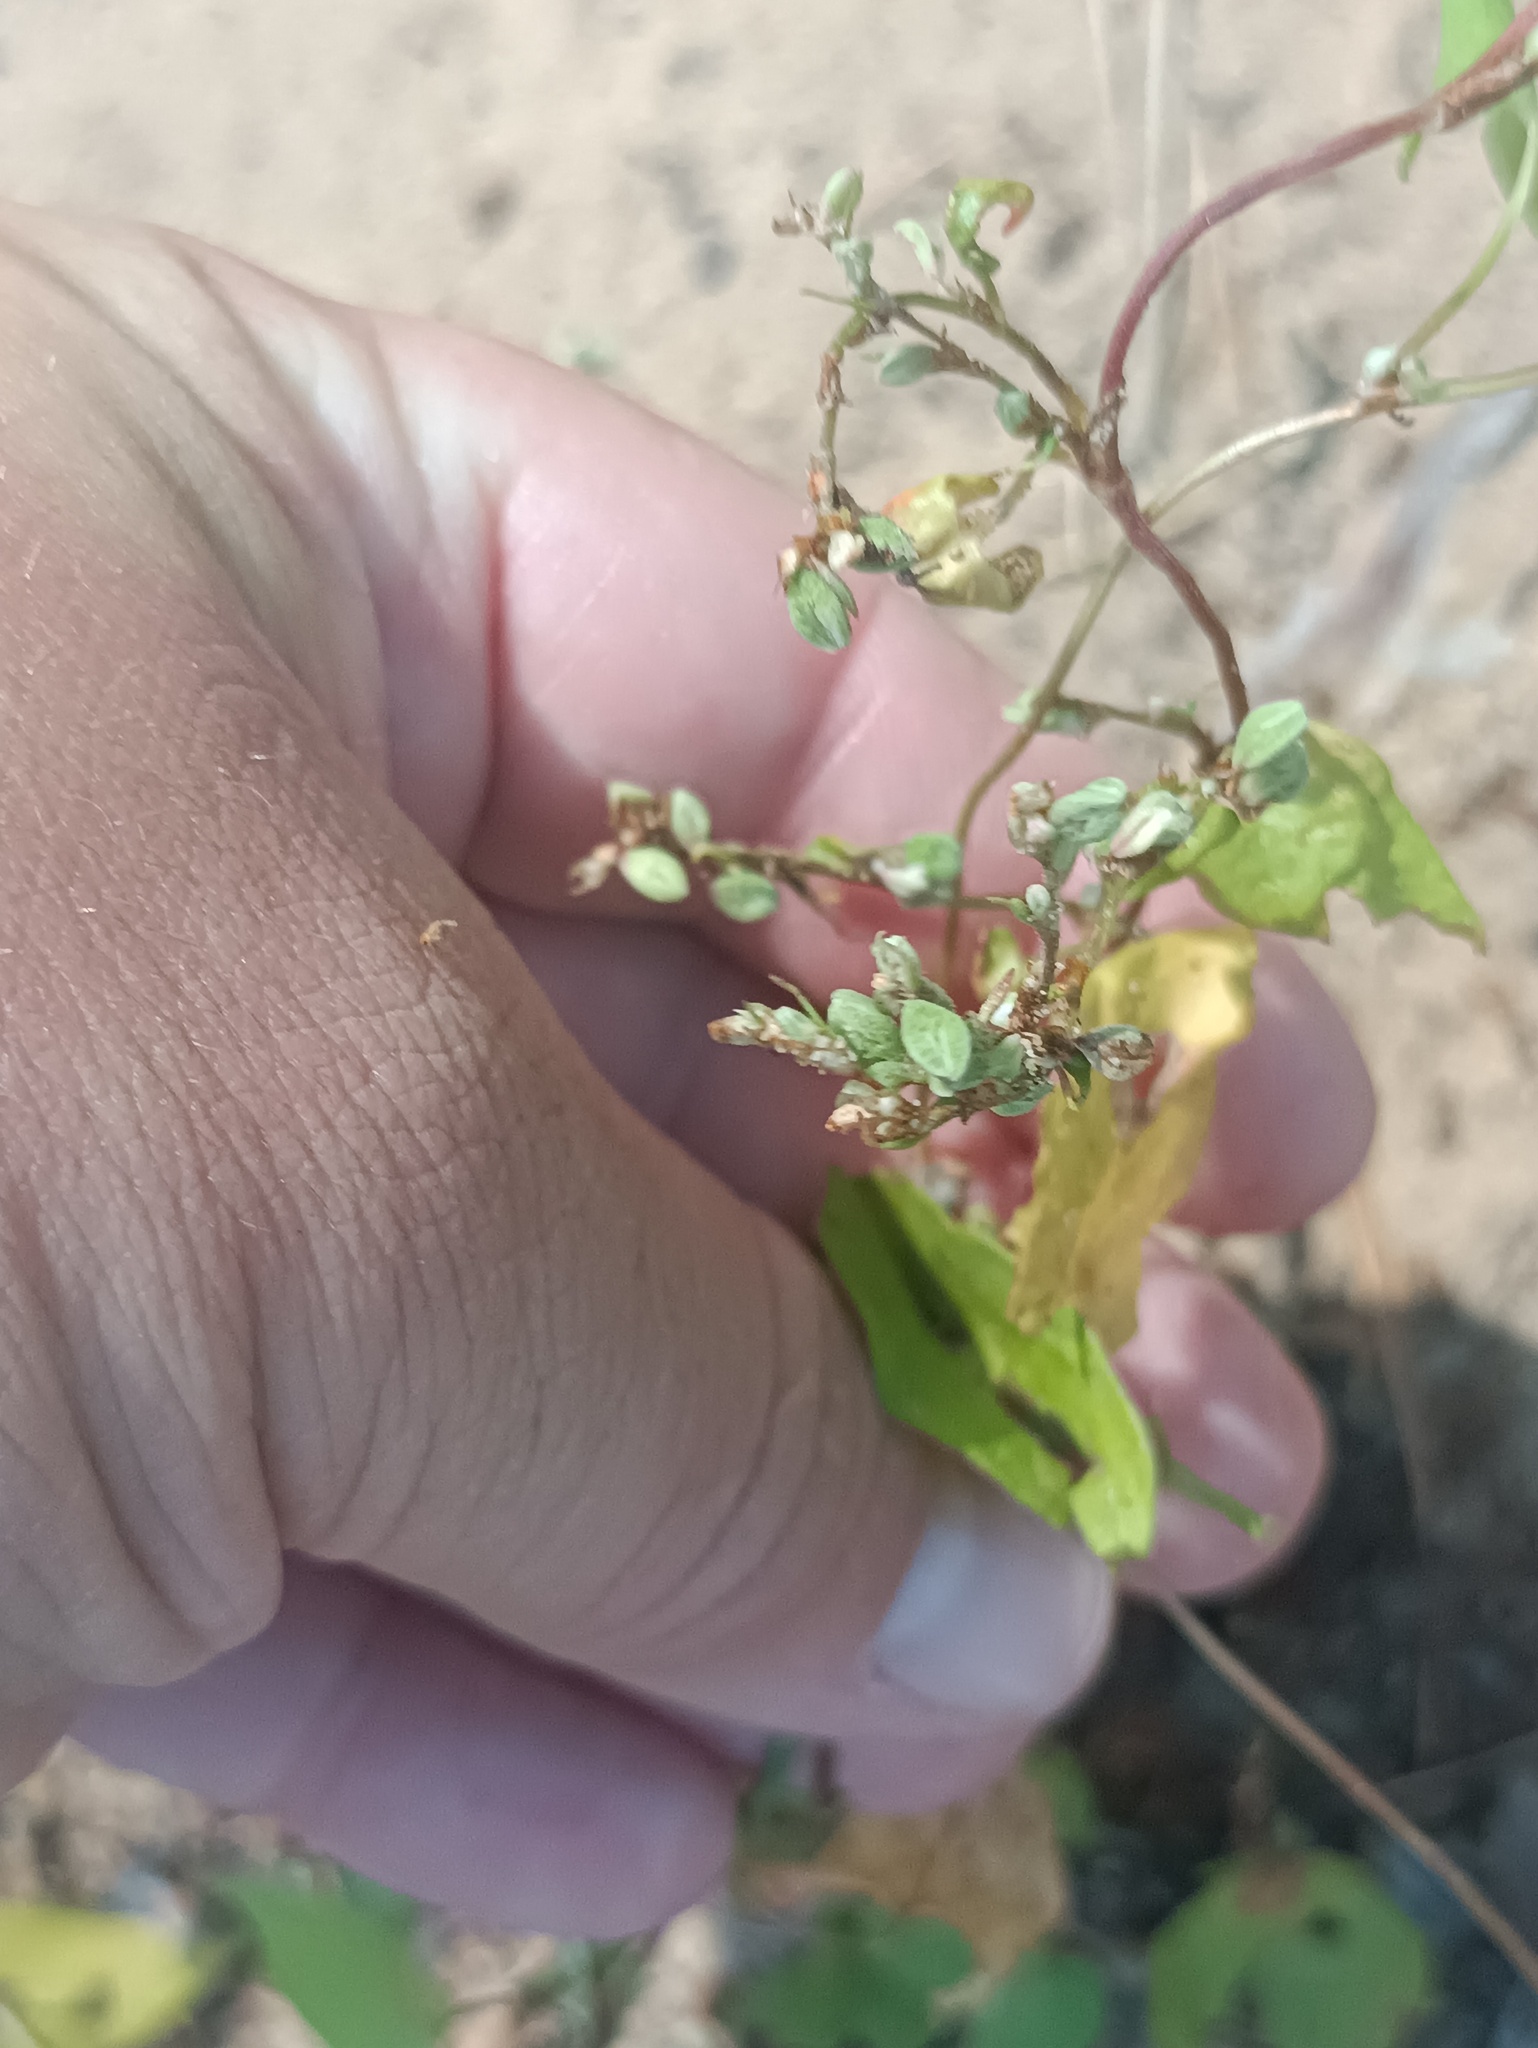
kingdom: Plantae
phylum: Tracheophyta
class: Magnoliopsida
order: Caryophyllales
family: Polygonaceae
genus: Fallopia
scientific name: Fallopia convolvulus
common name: Black bindweed
